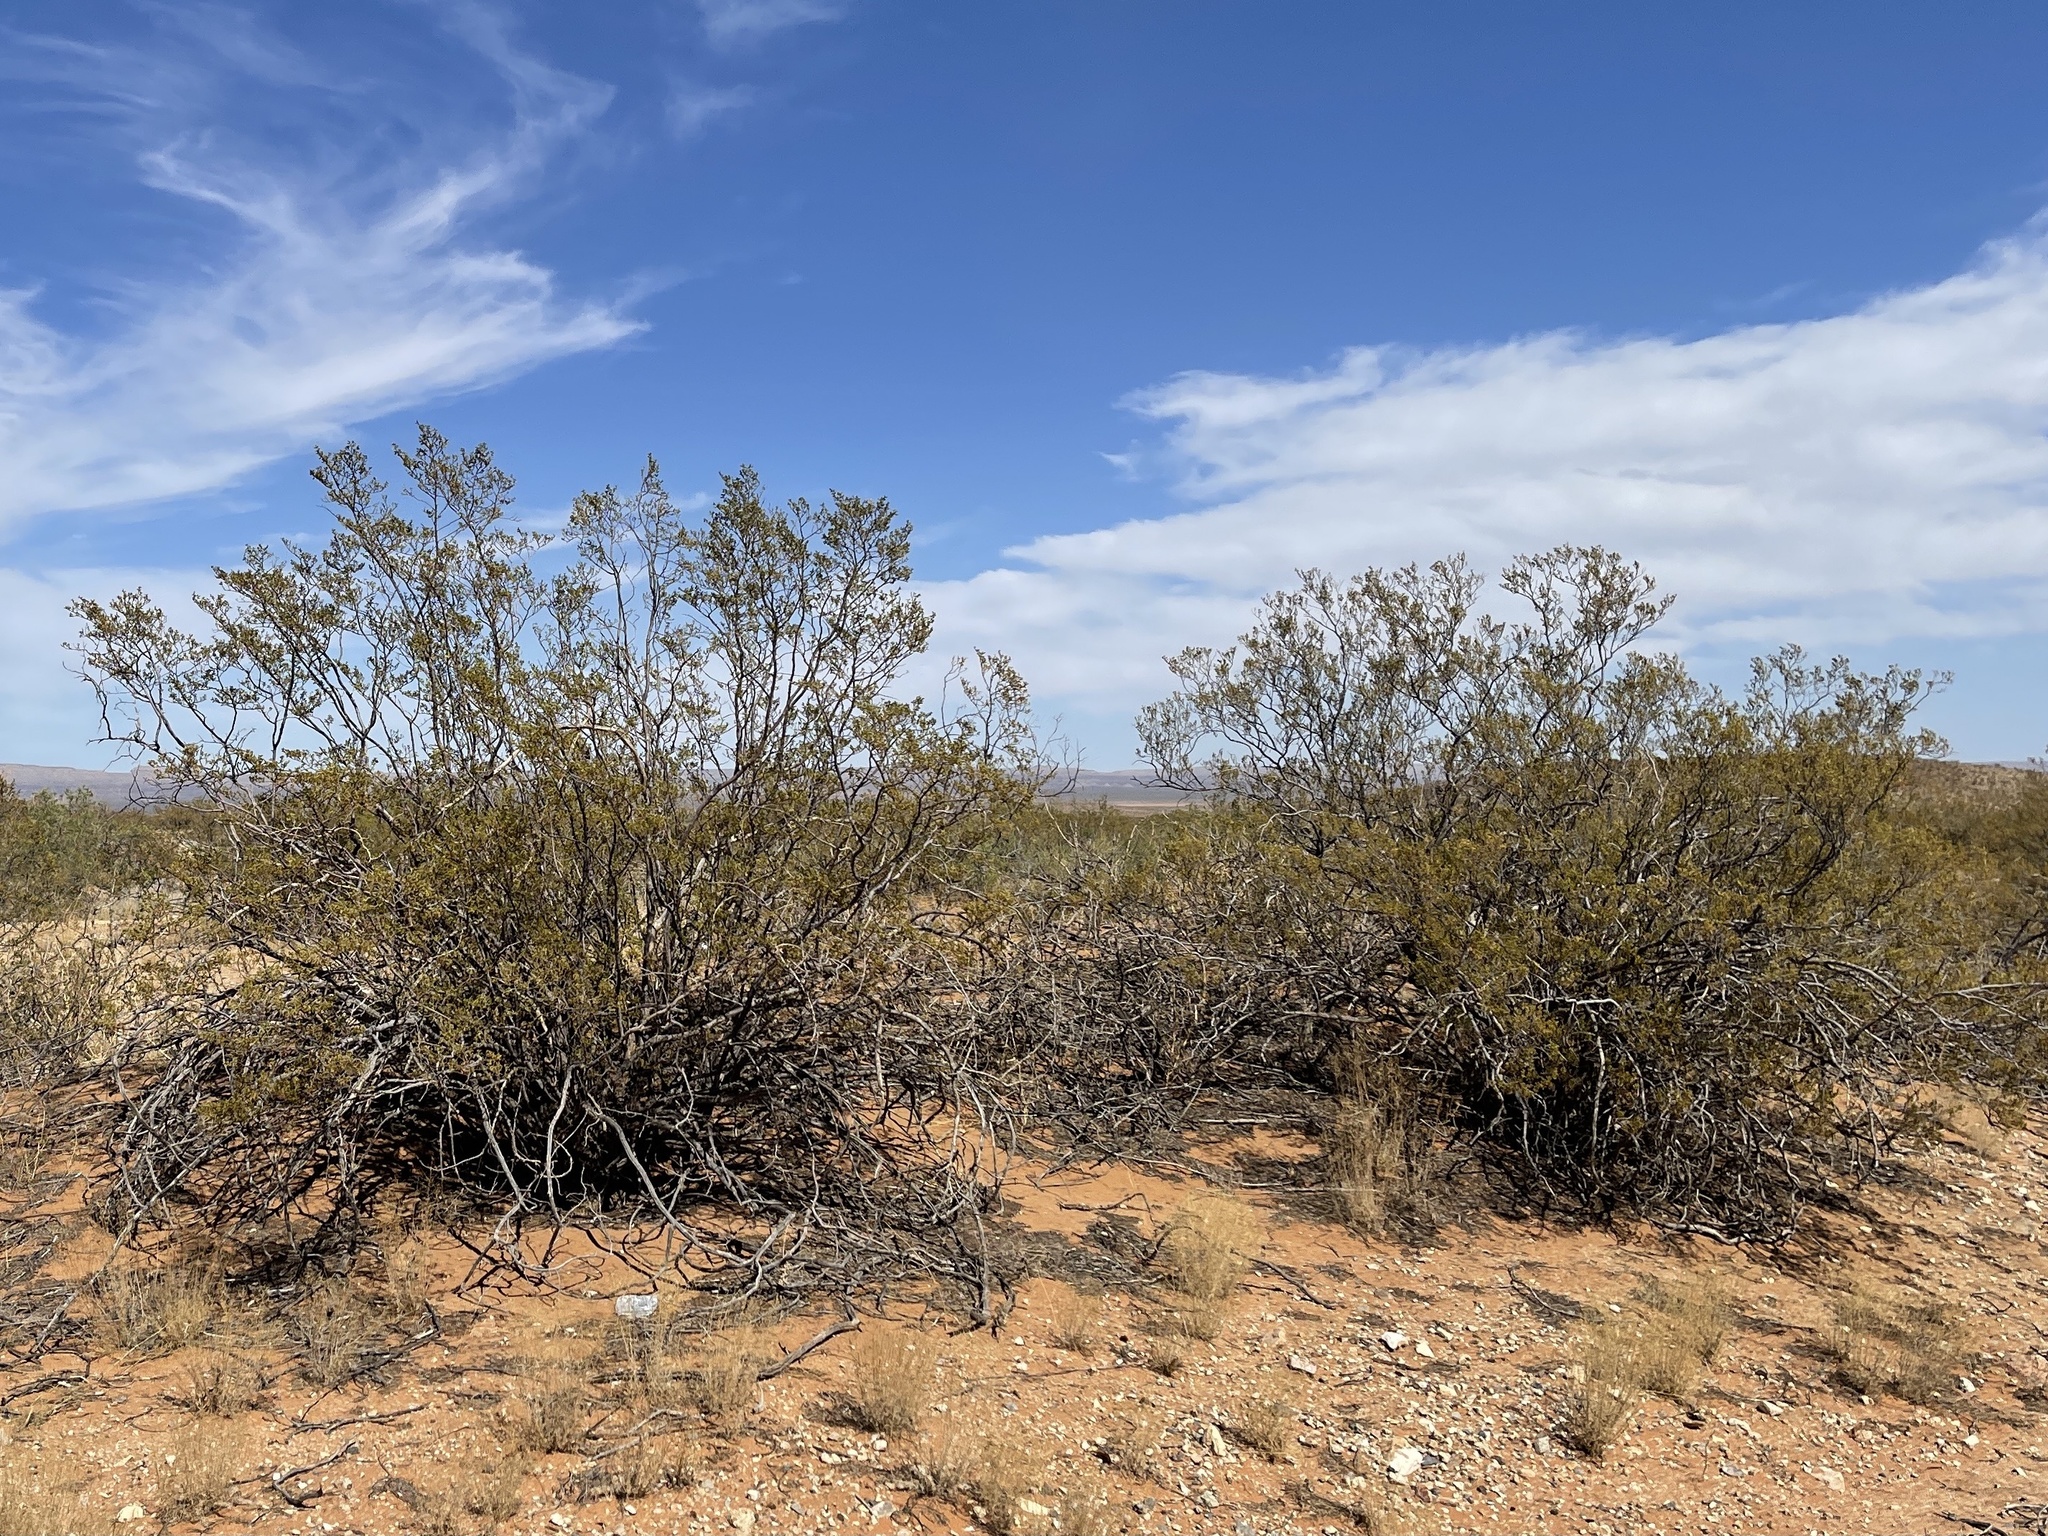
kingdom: Plantae
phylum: Tracheophyta
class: Magnoliopsida
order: Zygophyllales
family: Zygophyllaceae
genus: Larrea
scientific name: Larrea tridentata
